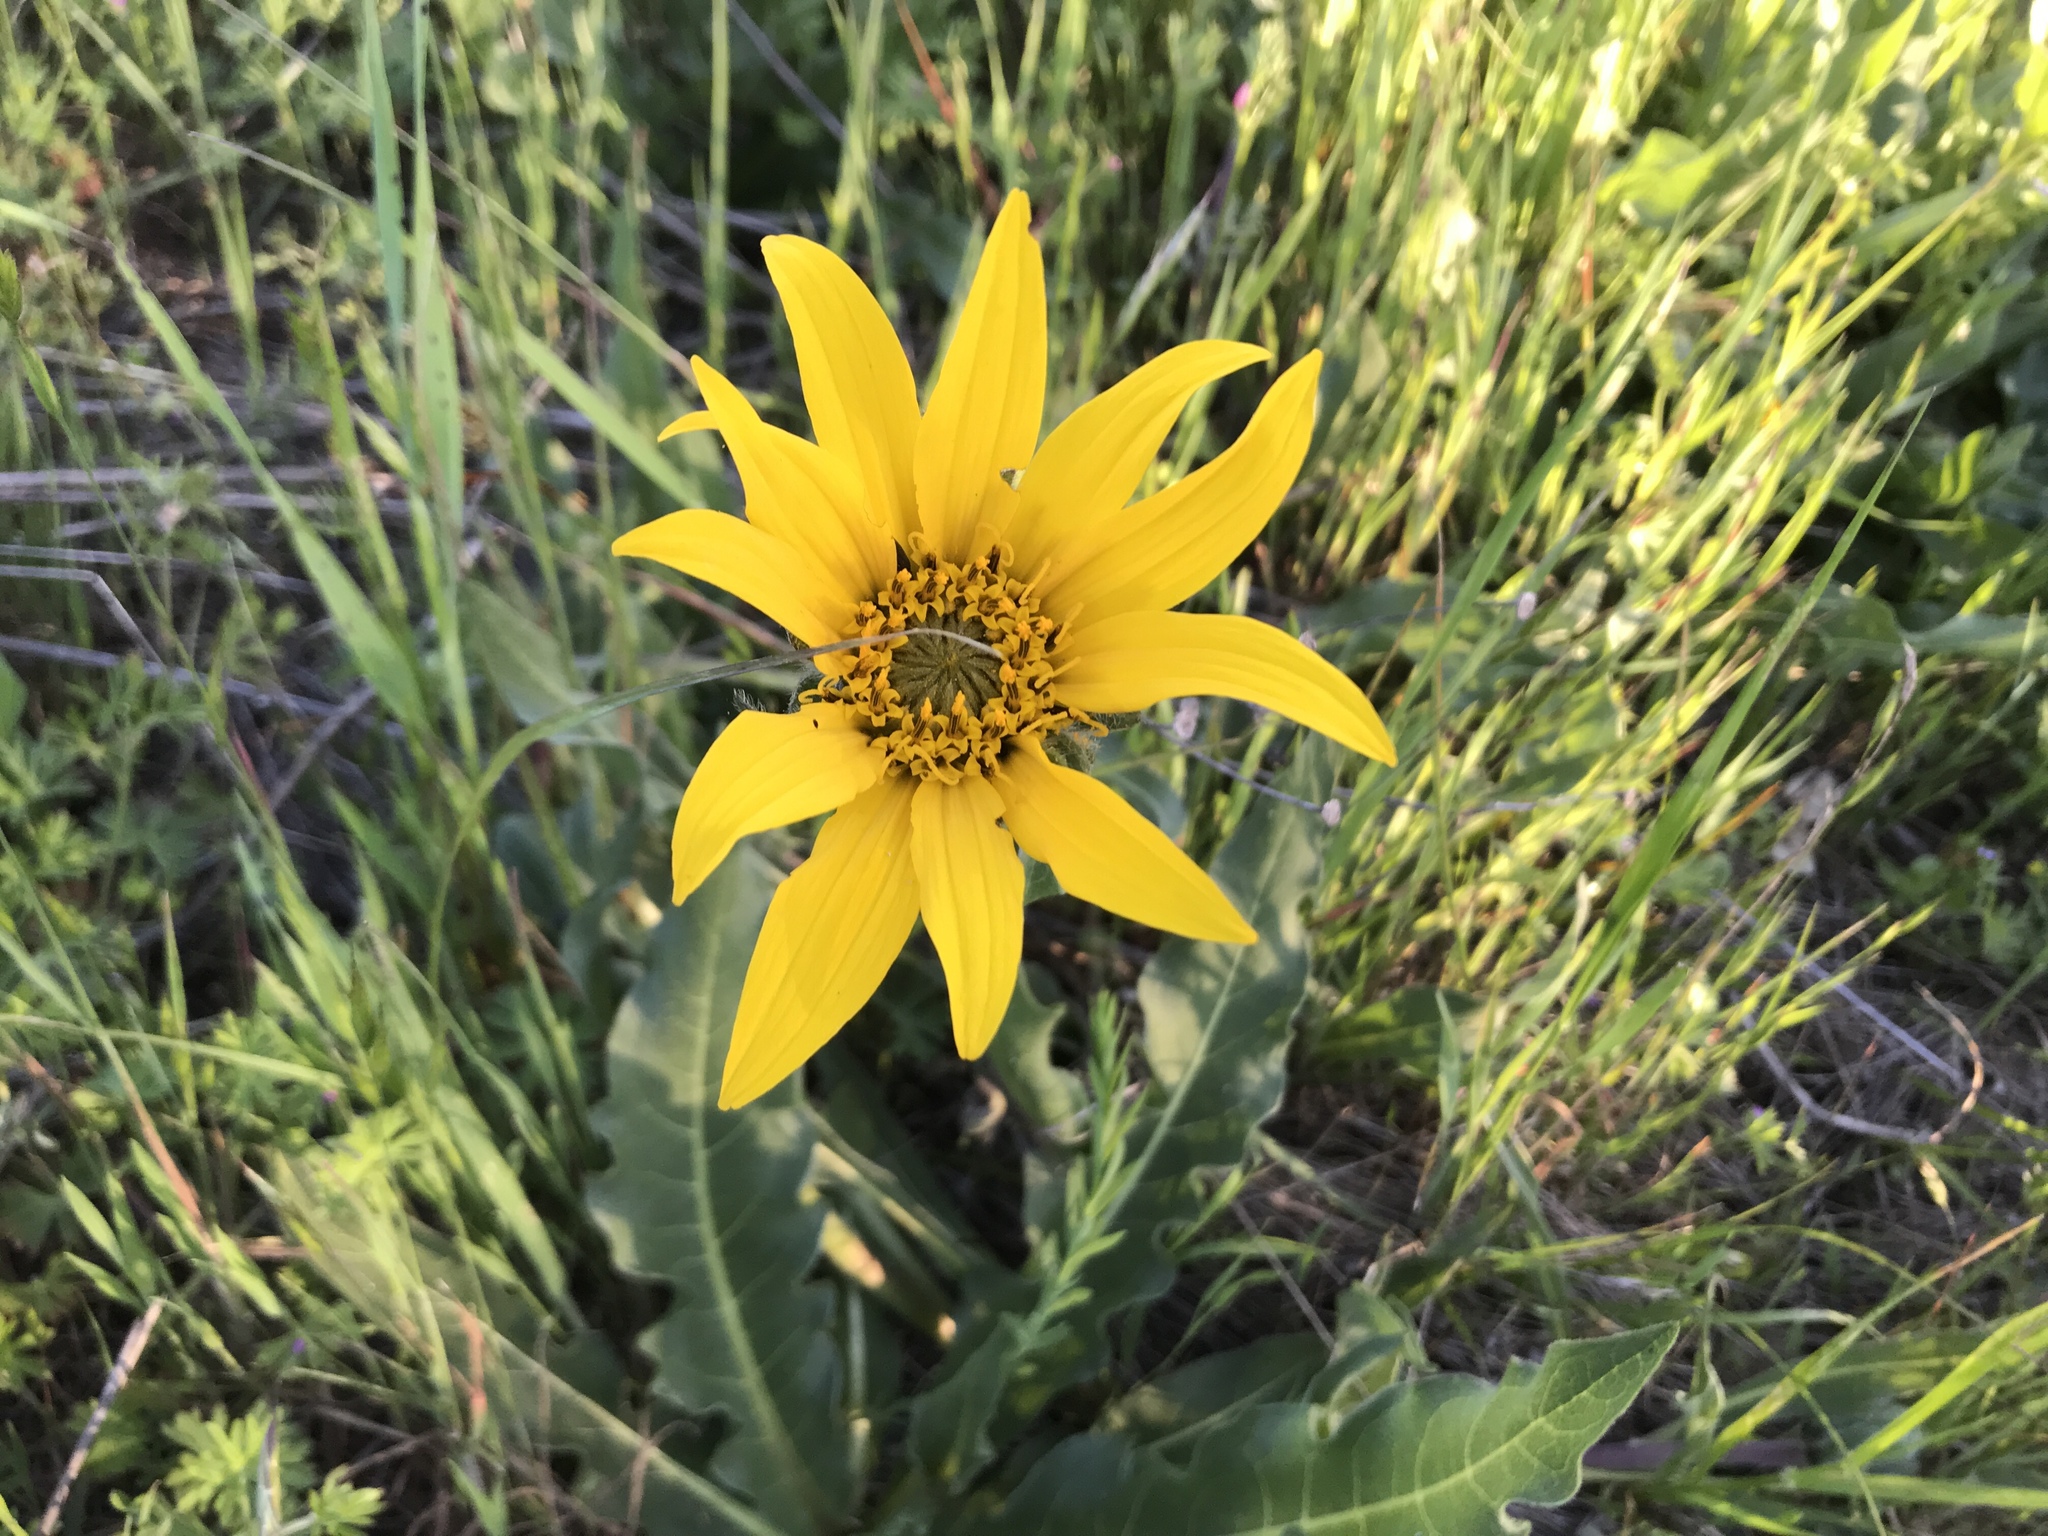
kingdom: Plantae
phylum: Tracheophyta
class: Magnoliopsida
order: Asterales
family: Asteraceae
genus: Wyethia
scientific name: Wyethia angustifolia
